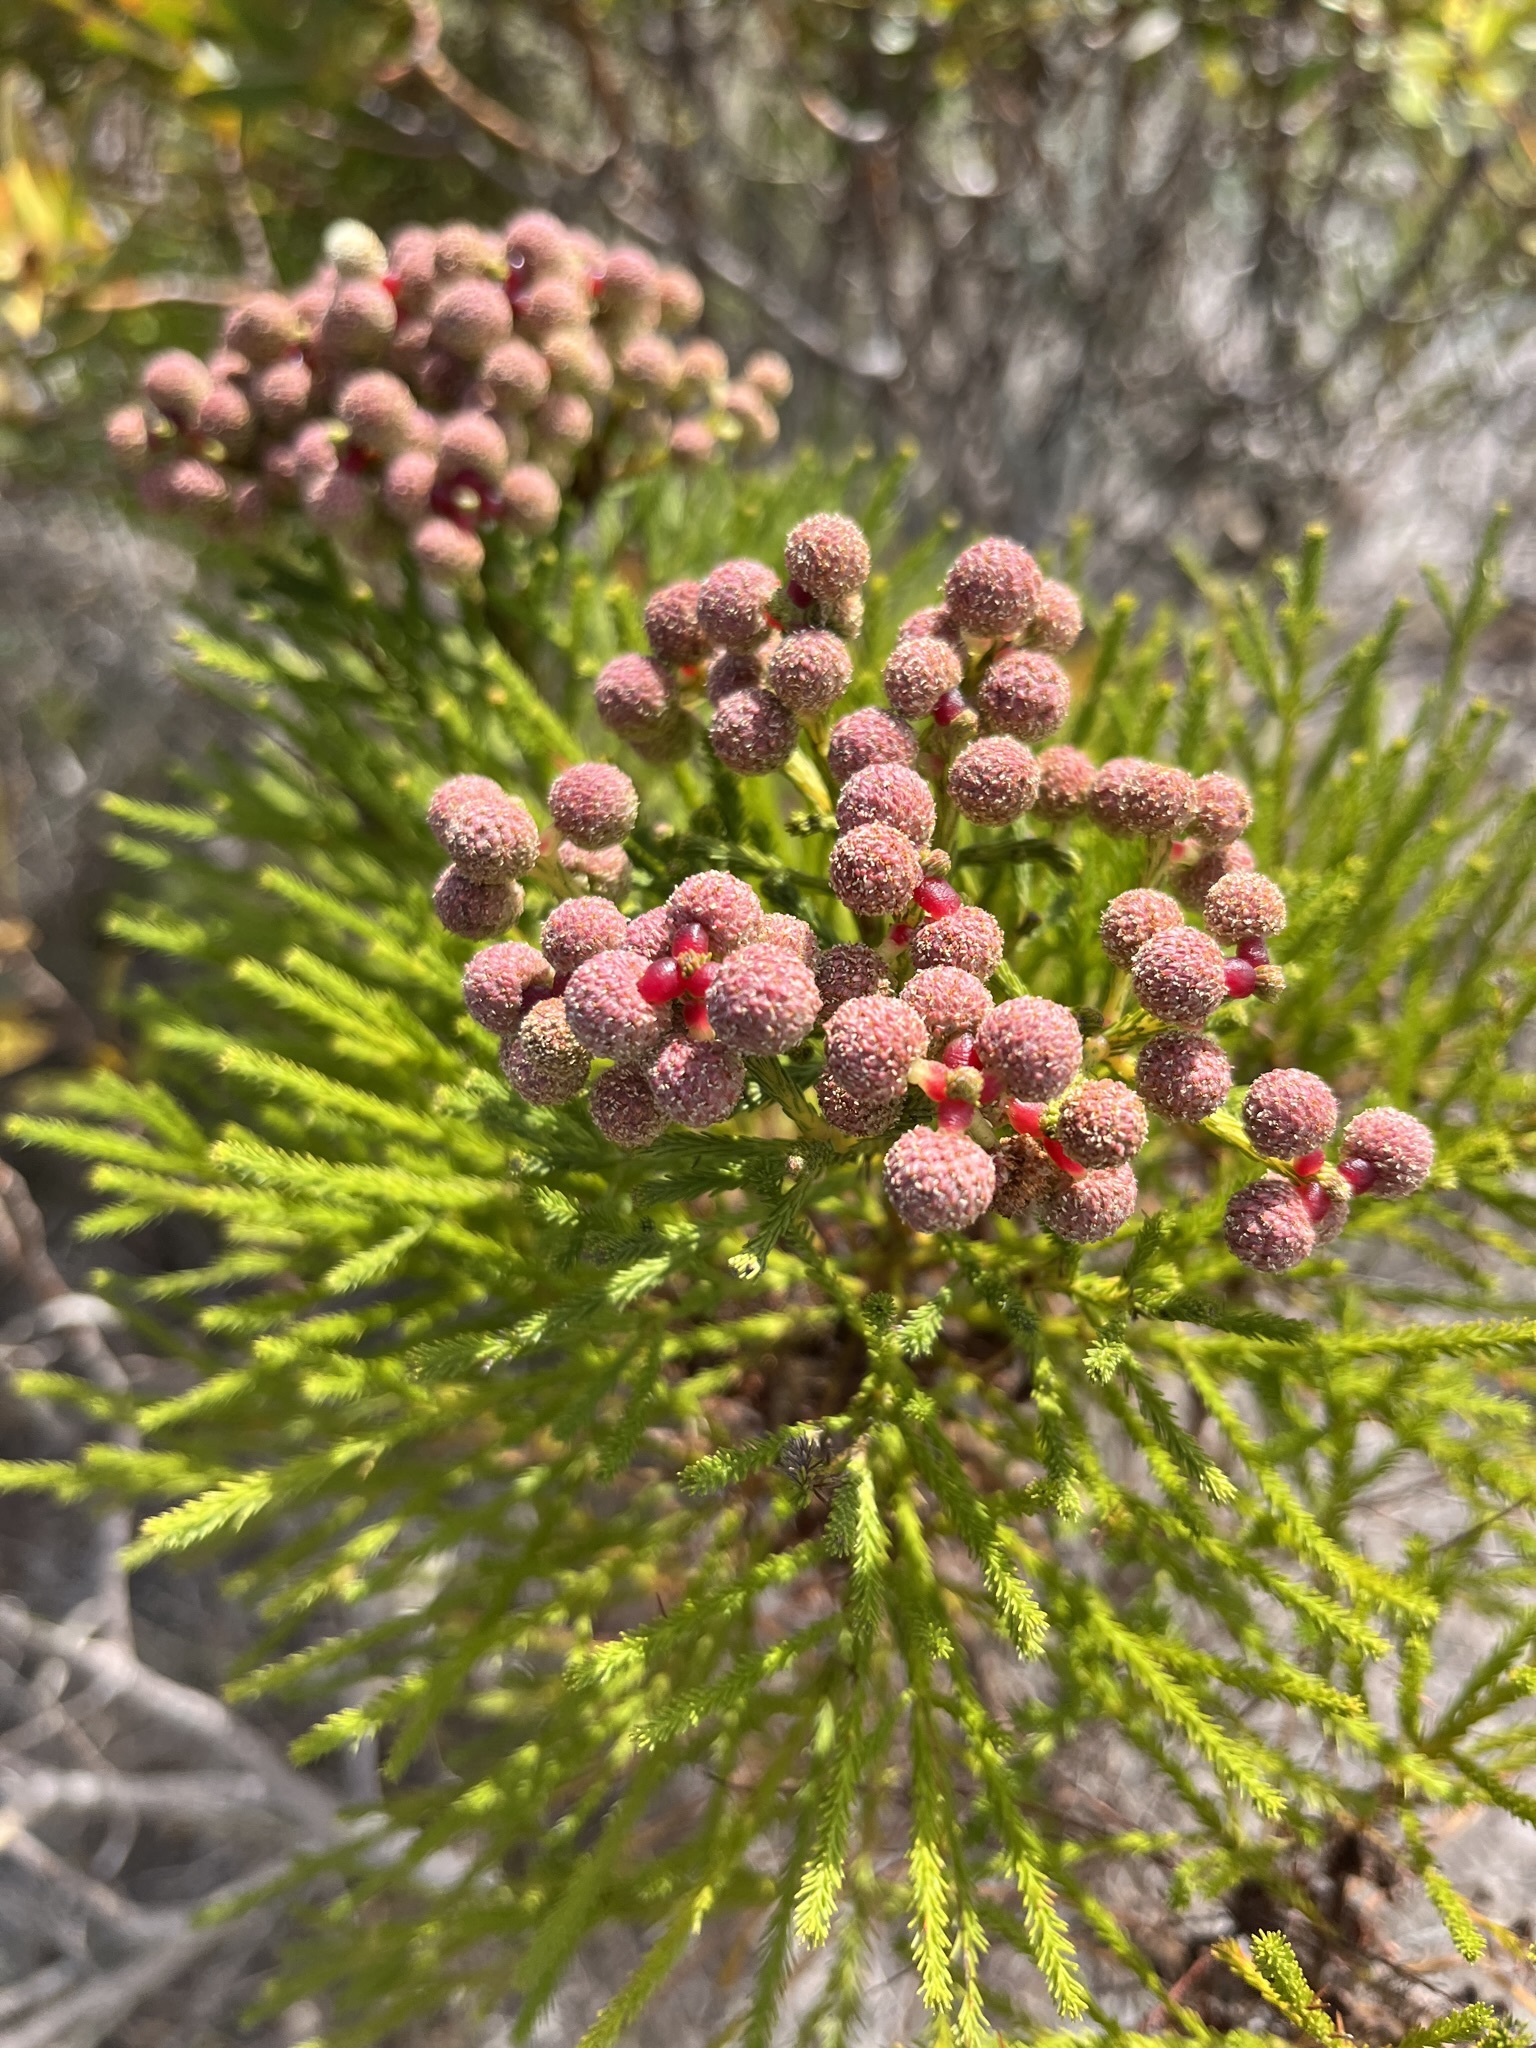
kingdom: Plantae
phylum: Tracheophyta
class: Magnoliopsida
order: Bruniales
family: Bruniaceae
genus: Berzelia
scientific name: Berzelia lanuginosa
